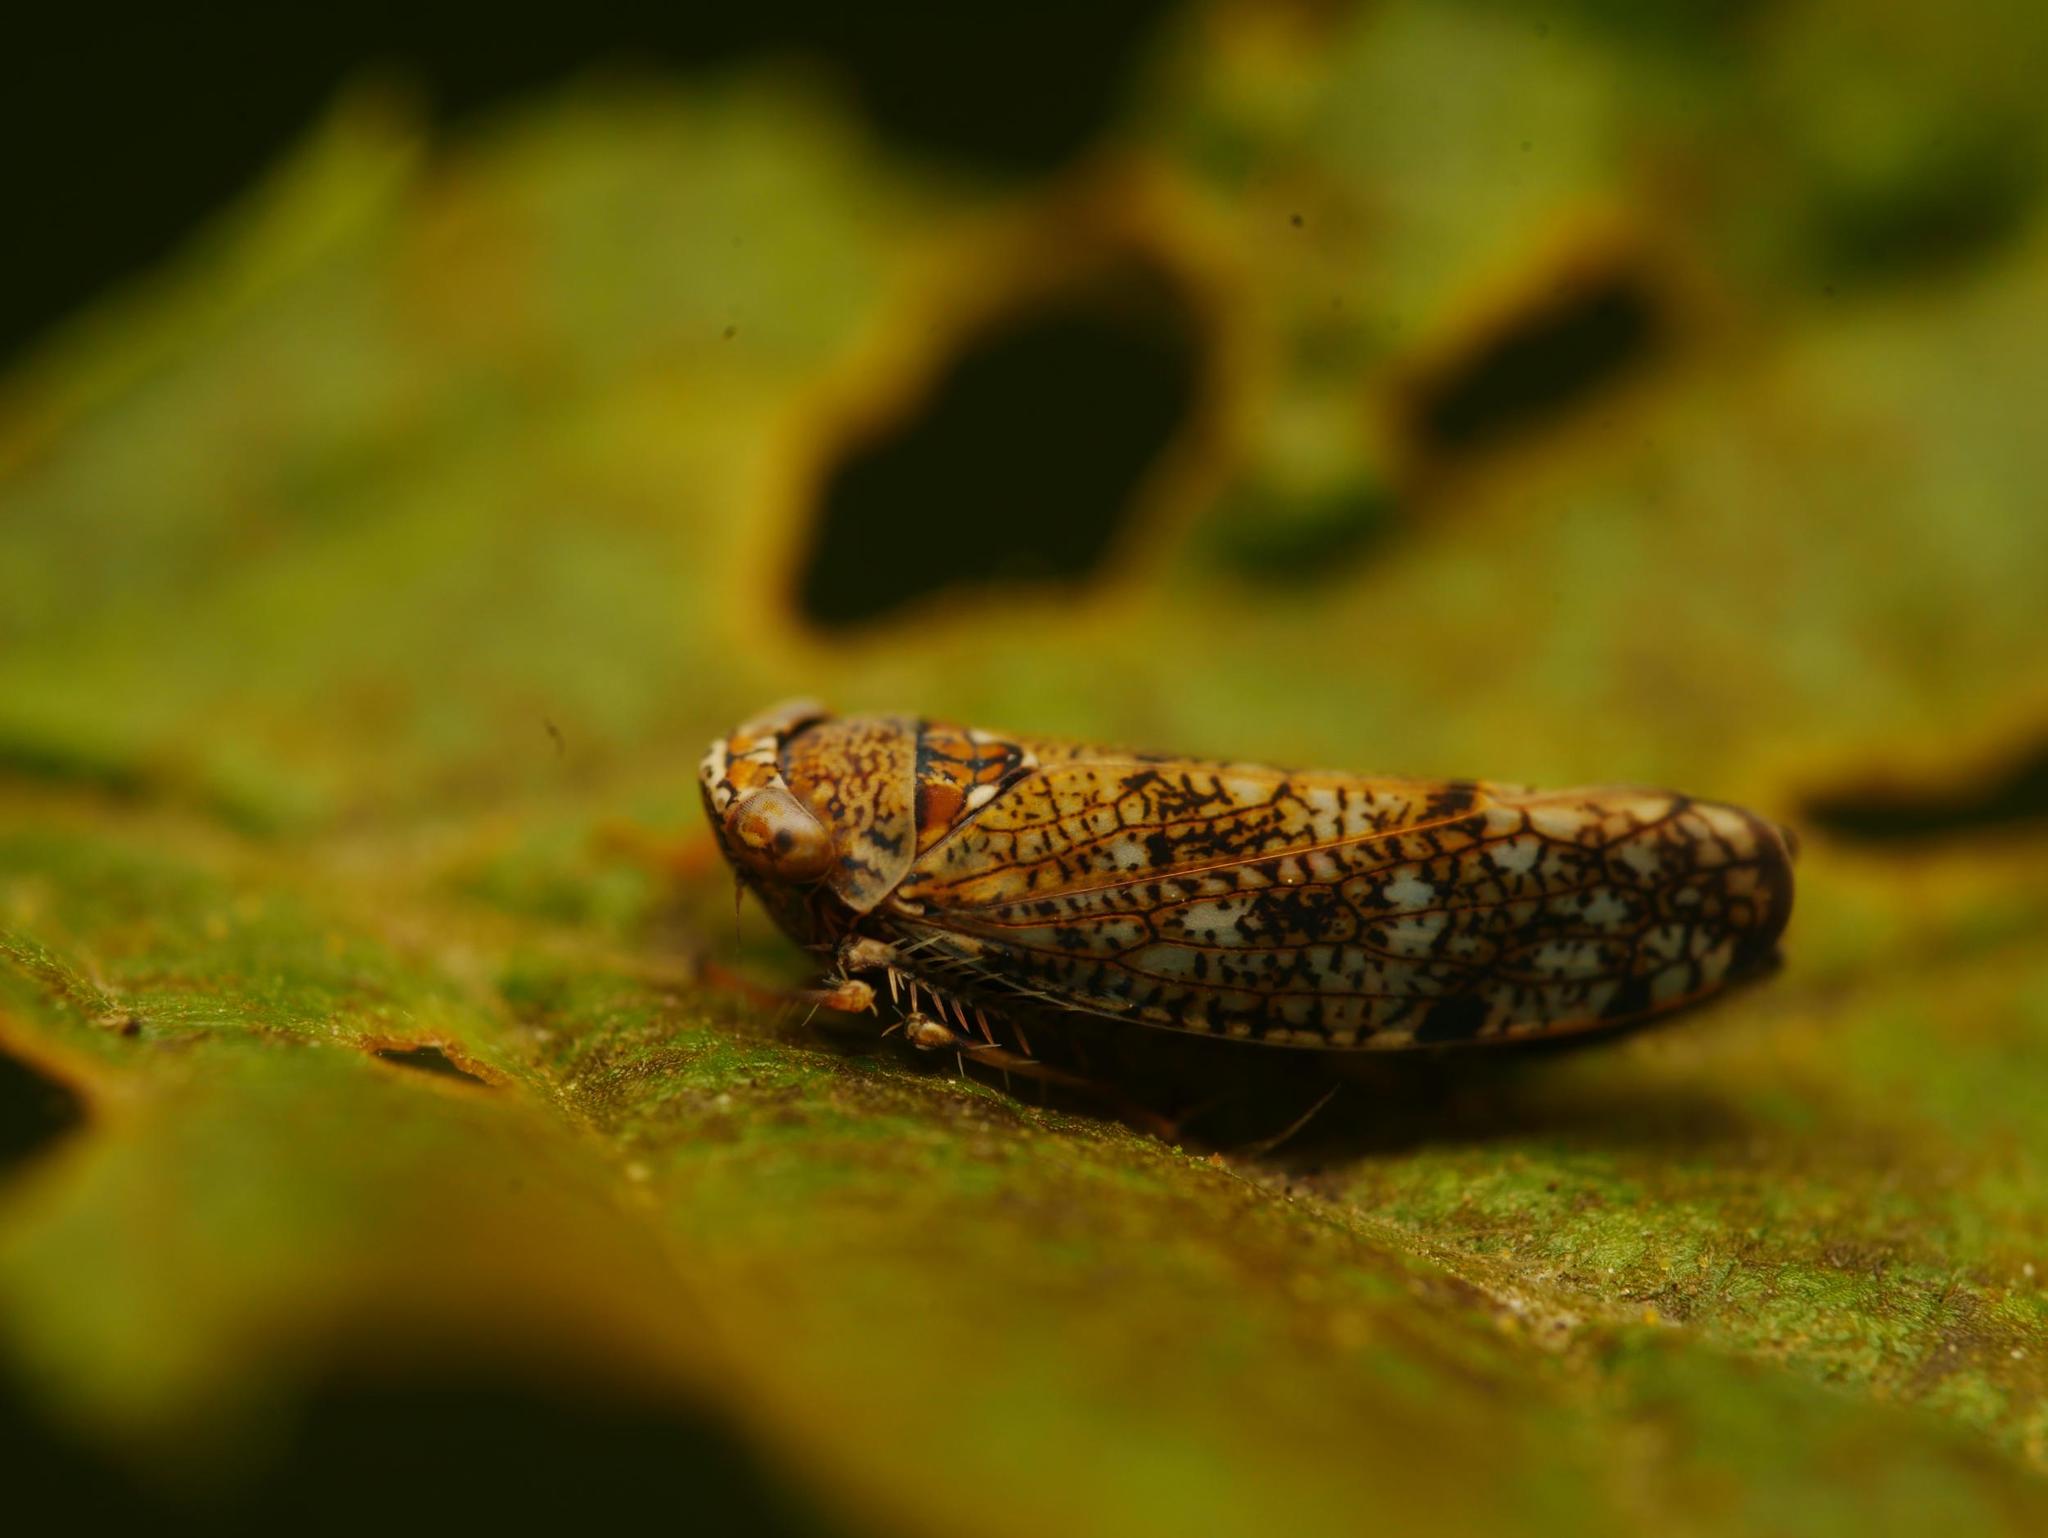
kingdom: Animalia
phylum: Arthropoda
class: Insecta
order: Hemiptera
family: Cicadellidae
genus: Orientus
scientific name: Orientus ishidae
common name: Japanese leafhopper
